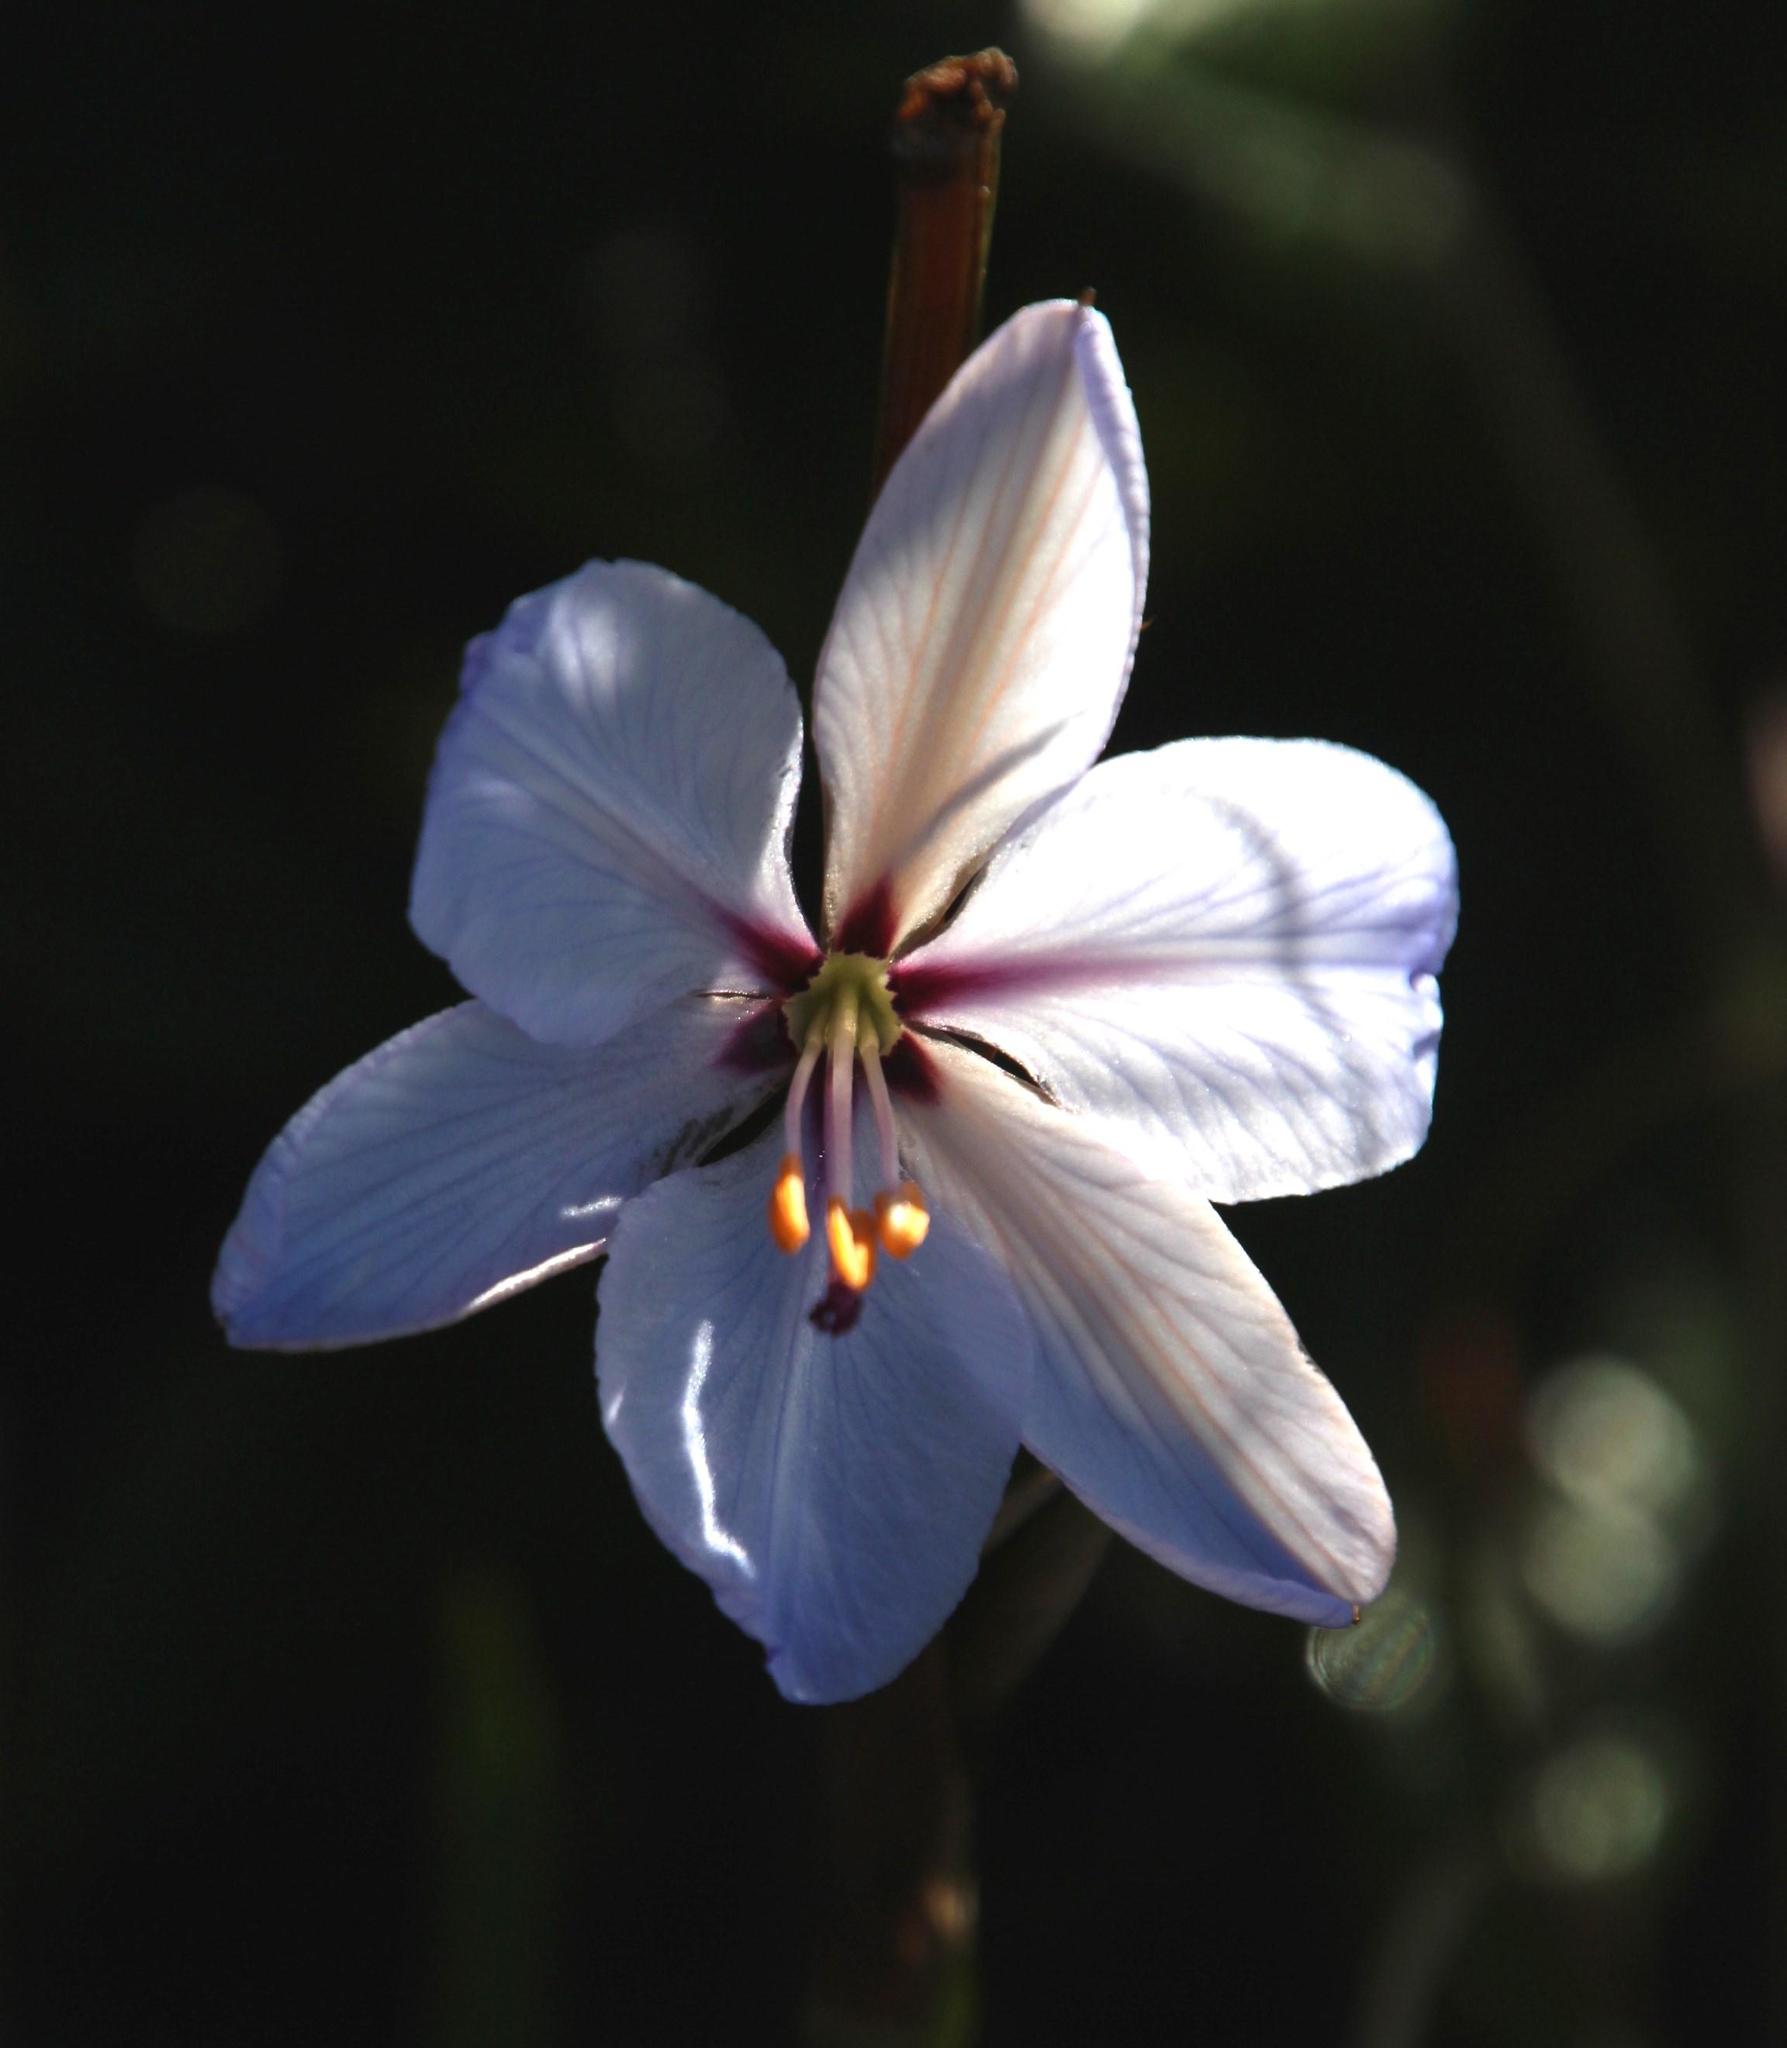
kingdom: Plantae
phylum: Tracheophyta
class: Liliopsida
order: Asparagales
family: Iridaceae
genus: Aristea
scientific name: Aristea spiralis
